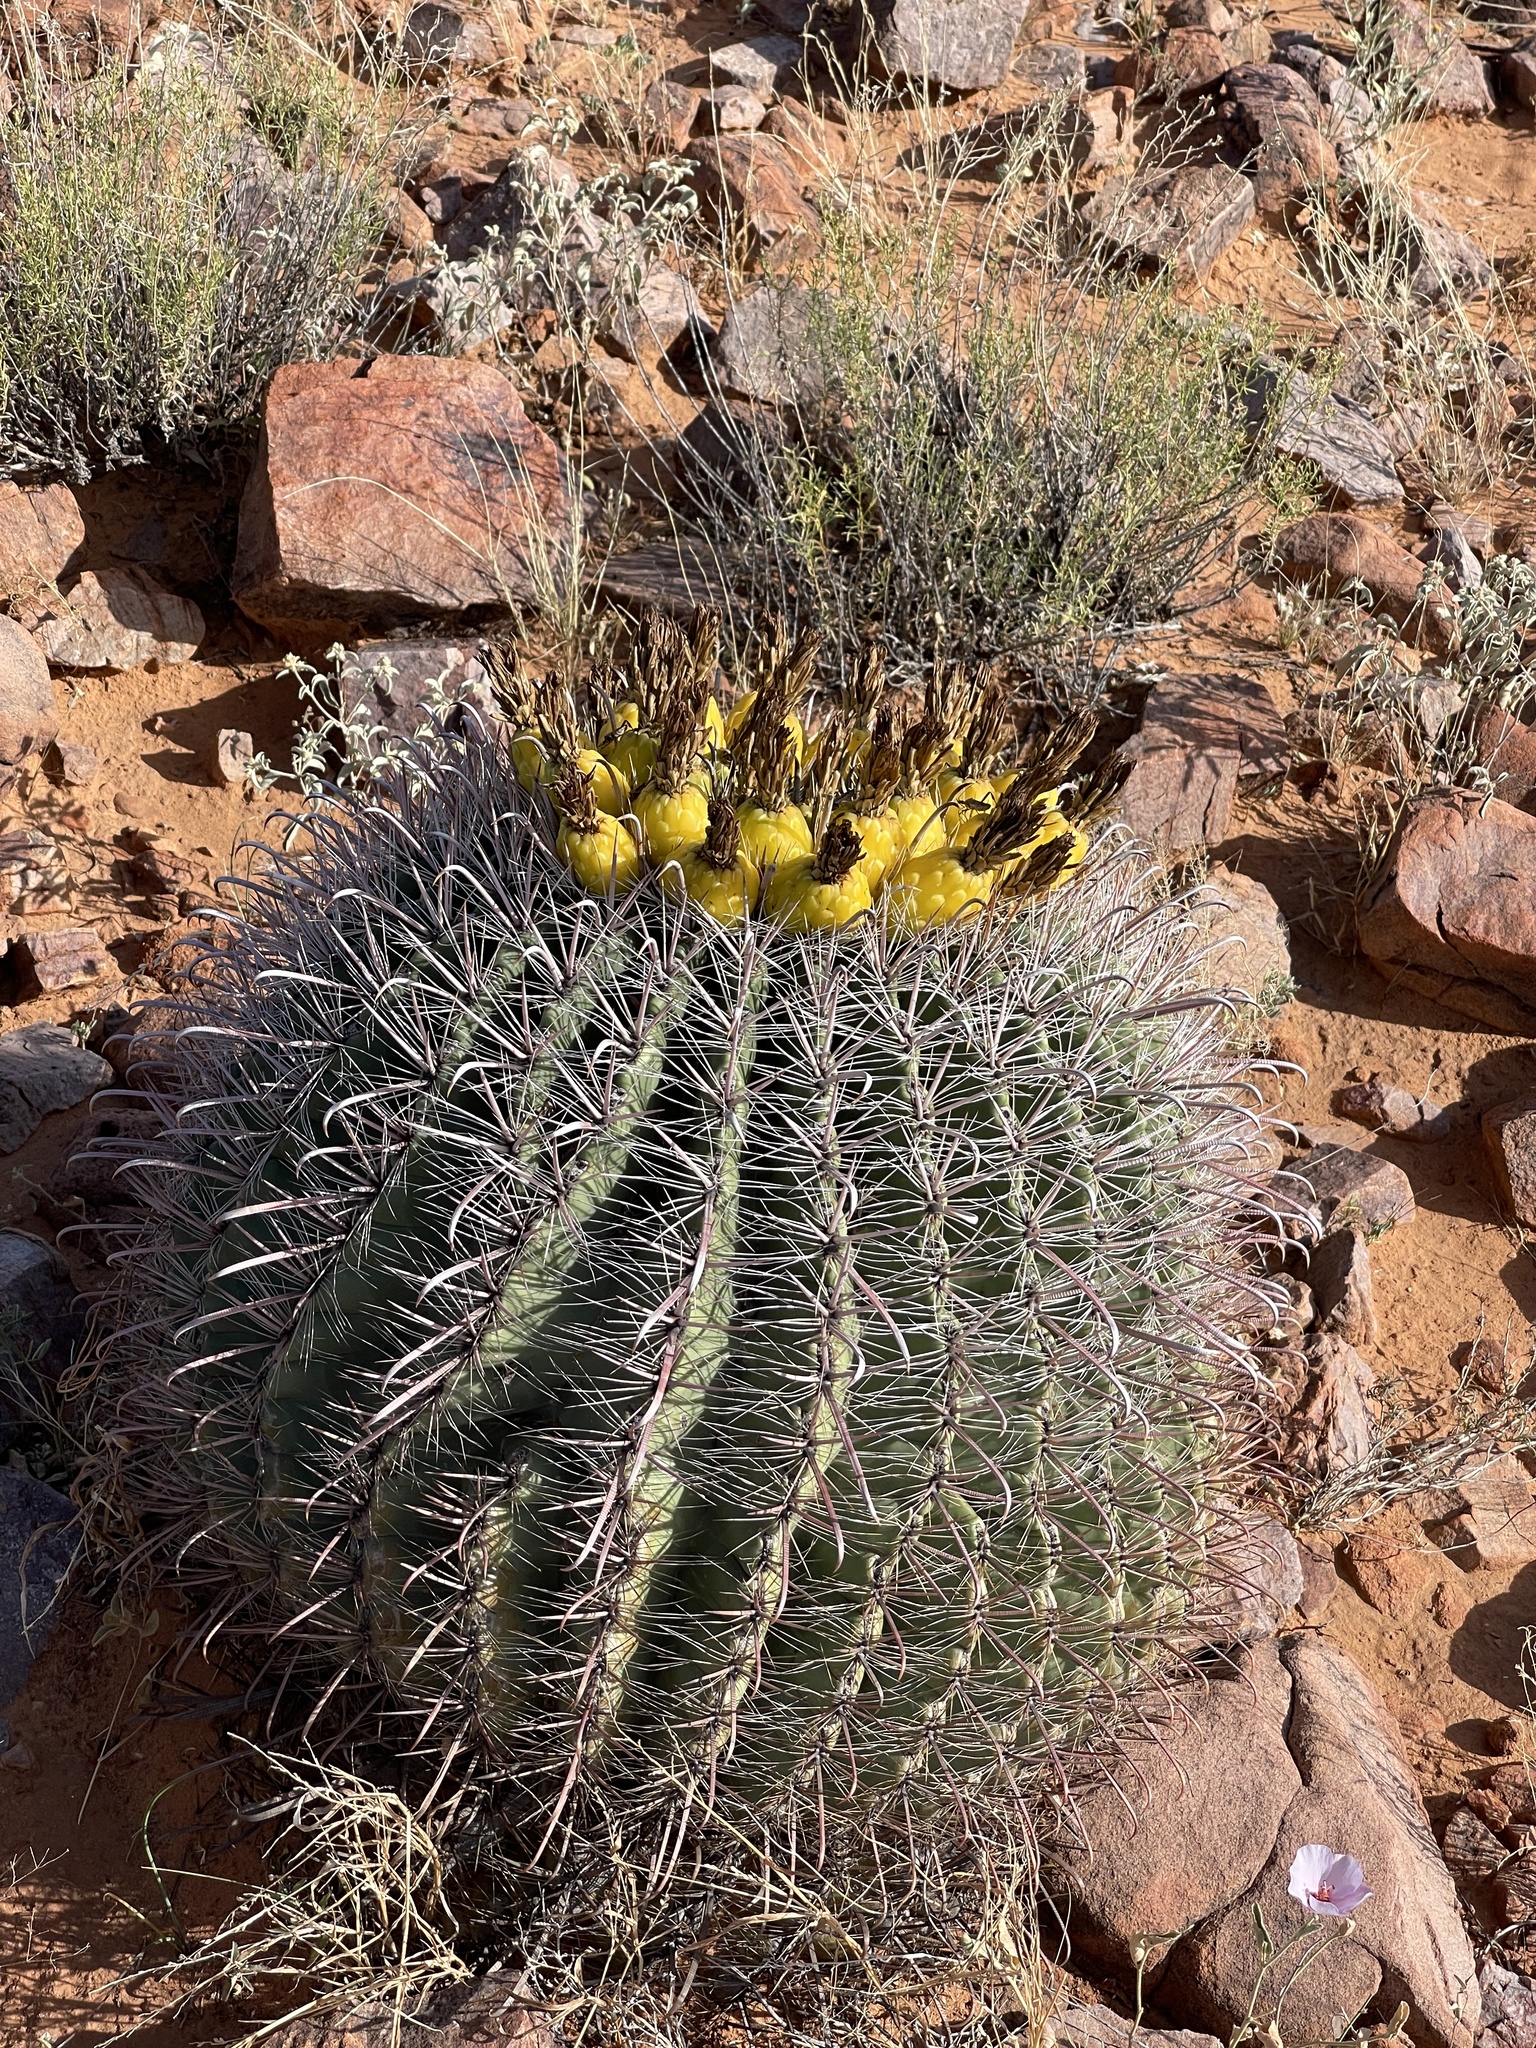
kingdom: Plantae
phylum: Tracheophyta
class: Magnoliopsida
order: Caryophyllales
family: Cactaceae
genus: Ferocactus
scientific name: Ferocactus wislizeni
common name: Candy barrel cactus
